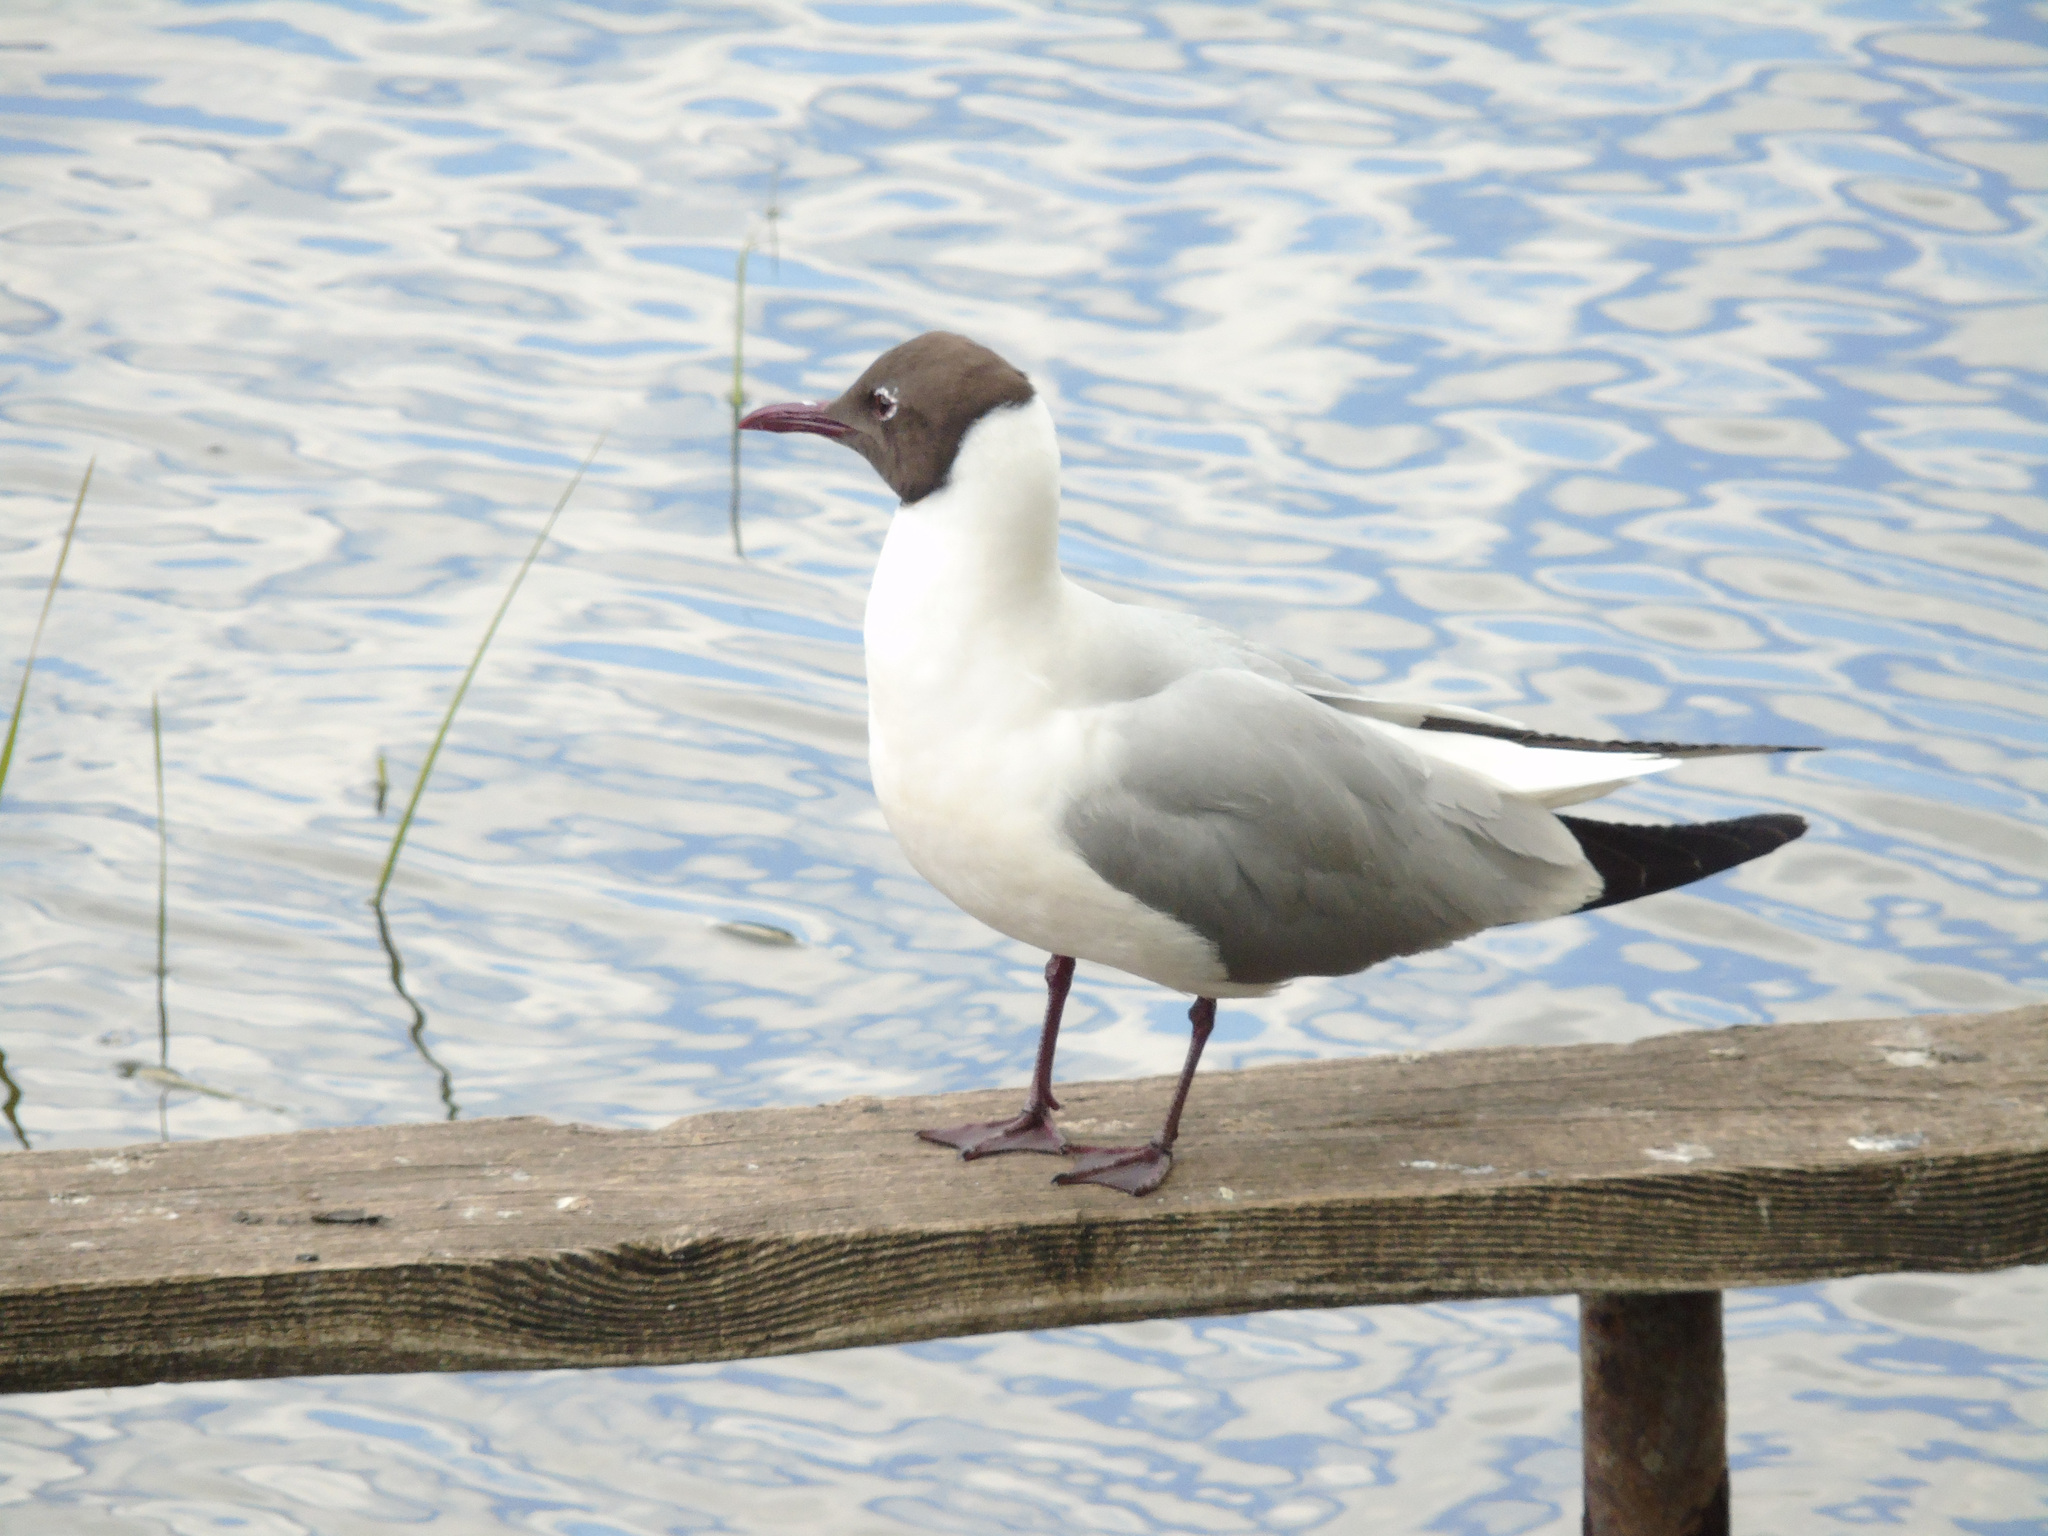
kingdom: Animalia
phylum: Chordata
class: Aves
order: Charadriiformes
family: Laridae
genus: Chroicocephalus
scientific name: Chroicocephalus ridibundus
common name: Black-headed gull
